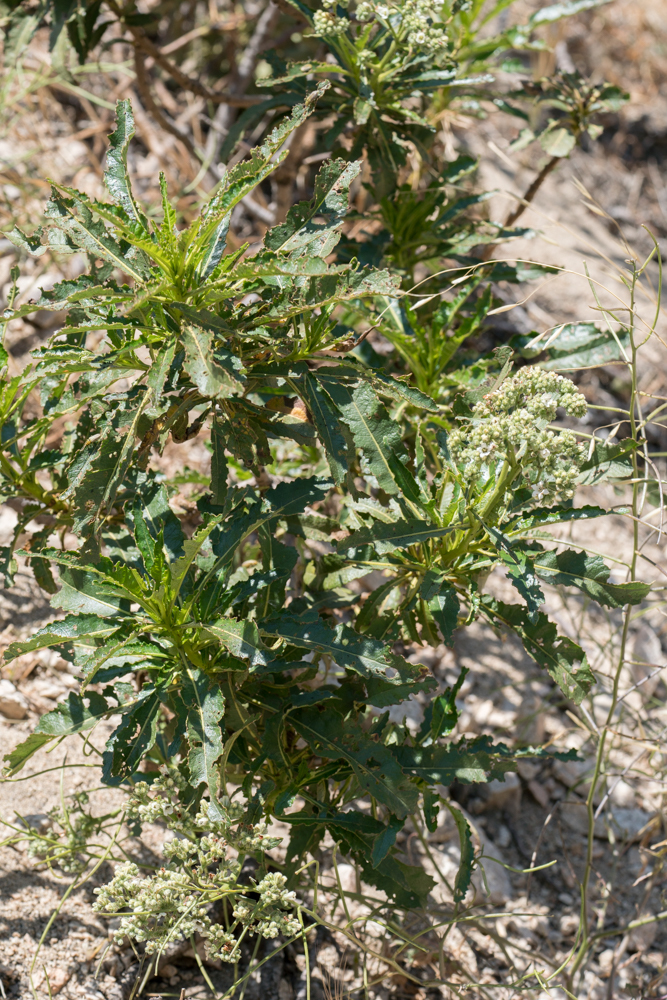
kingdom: Plantae
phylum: Tracheophyta
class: Magnoliopsida
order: Boraginales
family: Namaceae
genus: Eriodictyon
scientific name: Eriodictyon trichocalyx
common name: Hairy yerba-santa
